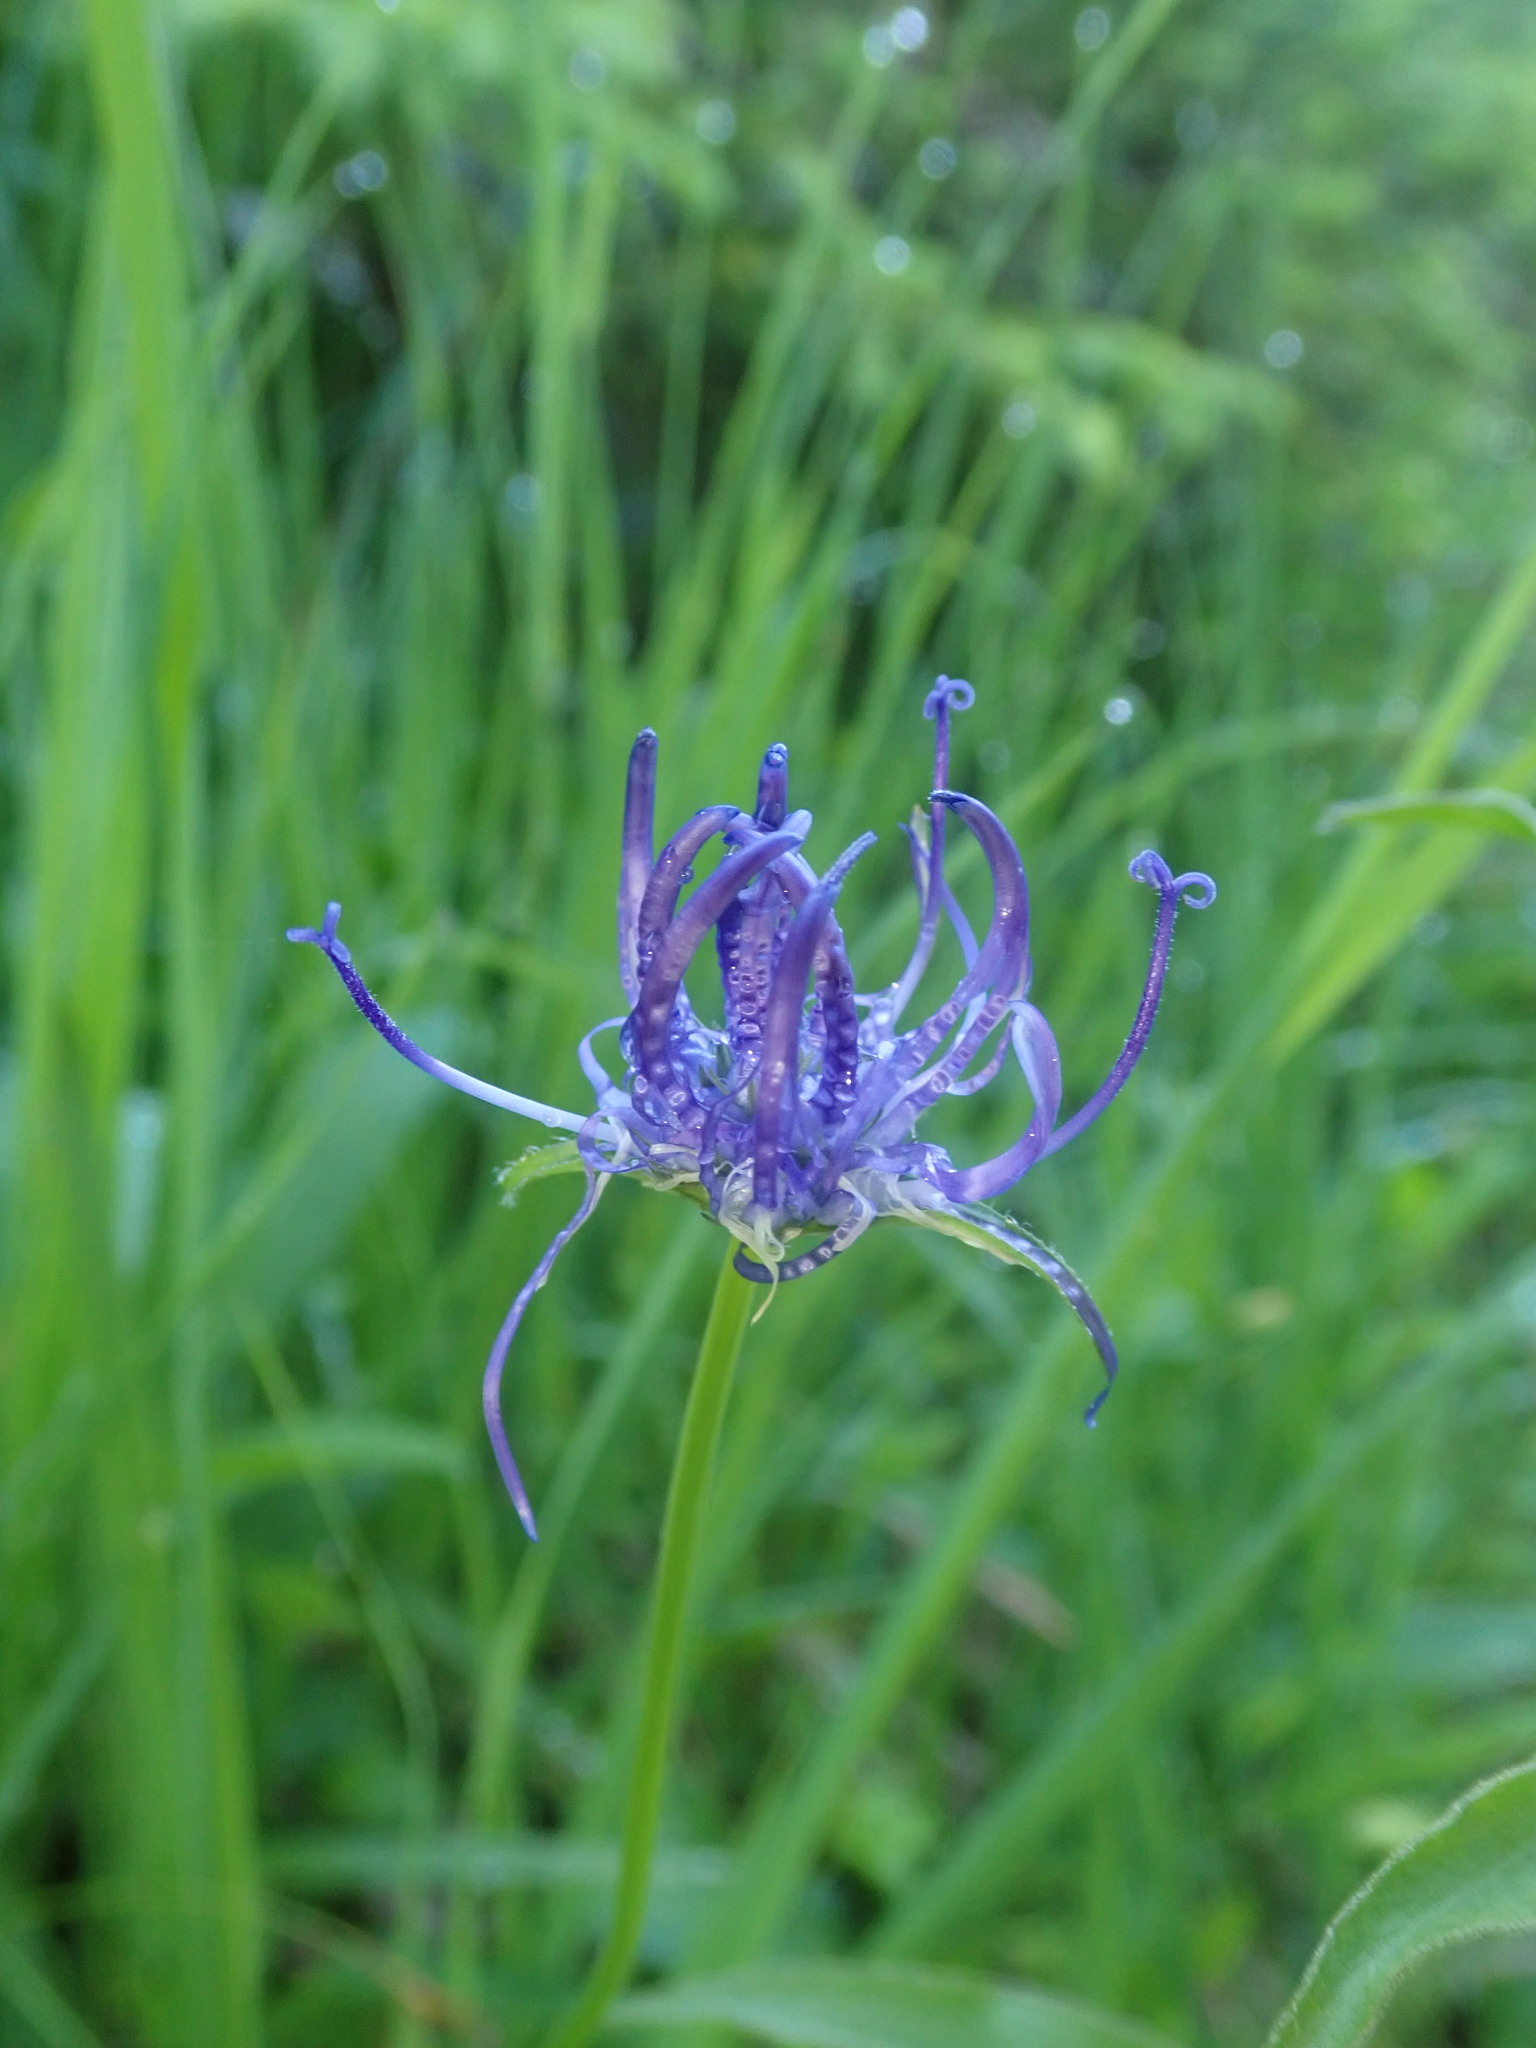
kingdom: Plantae
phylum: Tracheophyta
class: Magnoliopsida
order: Asterales
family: Campanulaceae
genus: Phyteuma
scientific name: Phyteuma orbiculare
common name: Round-headed rampion
